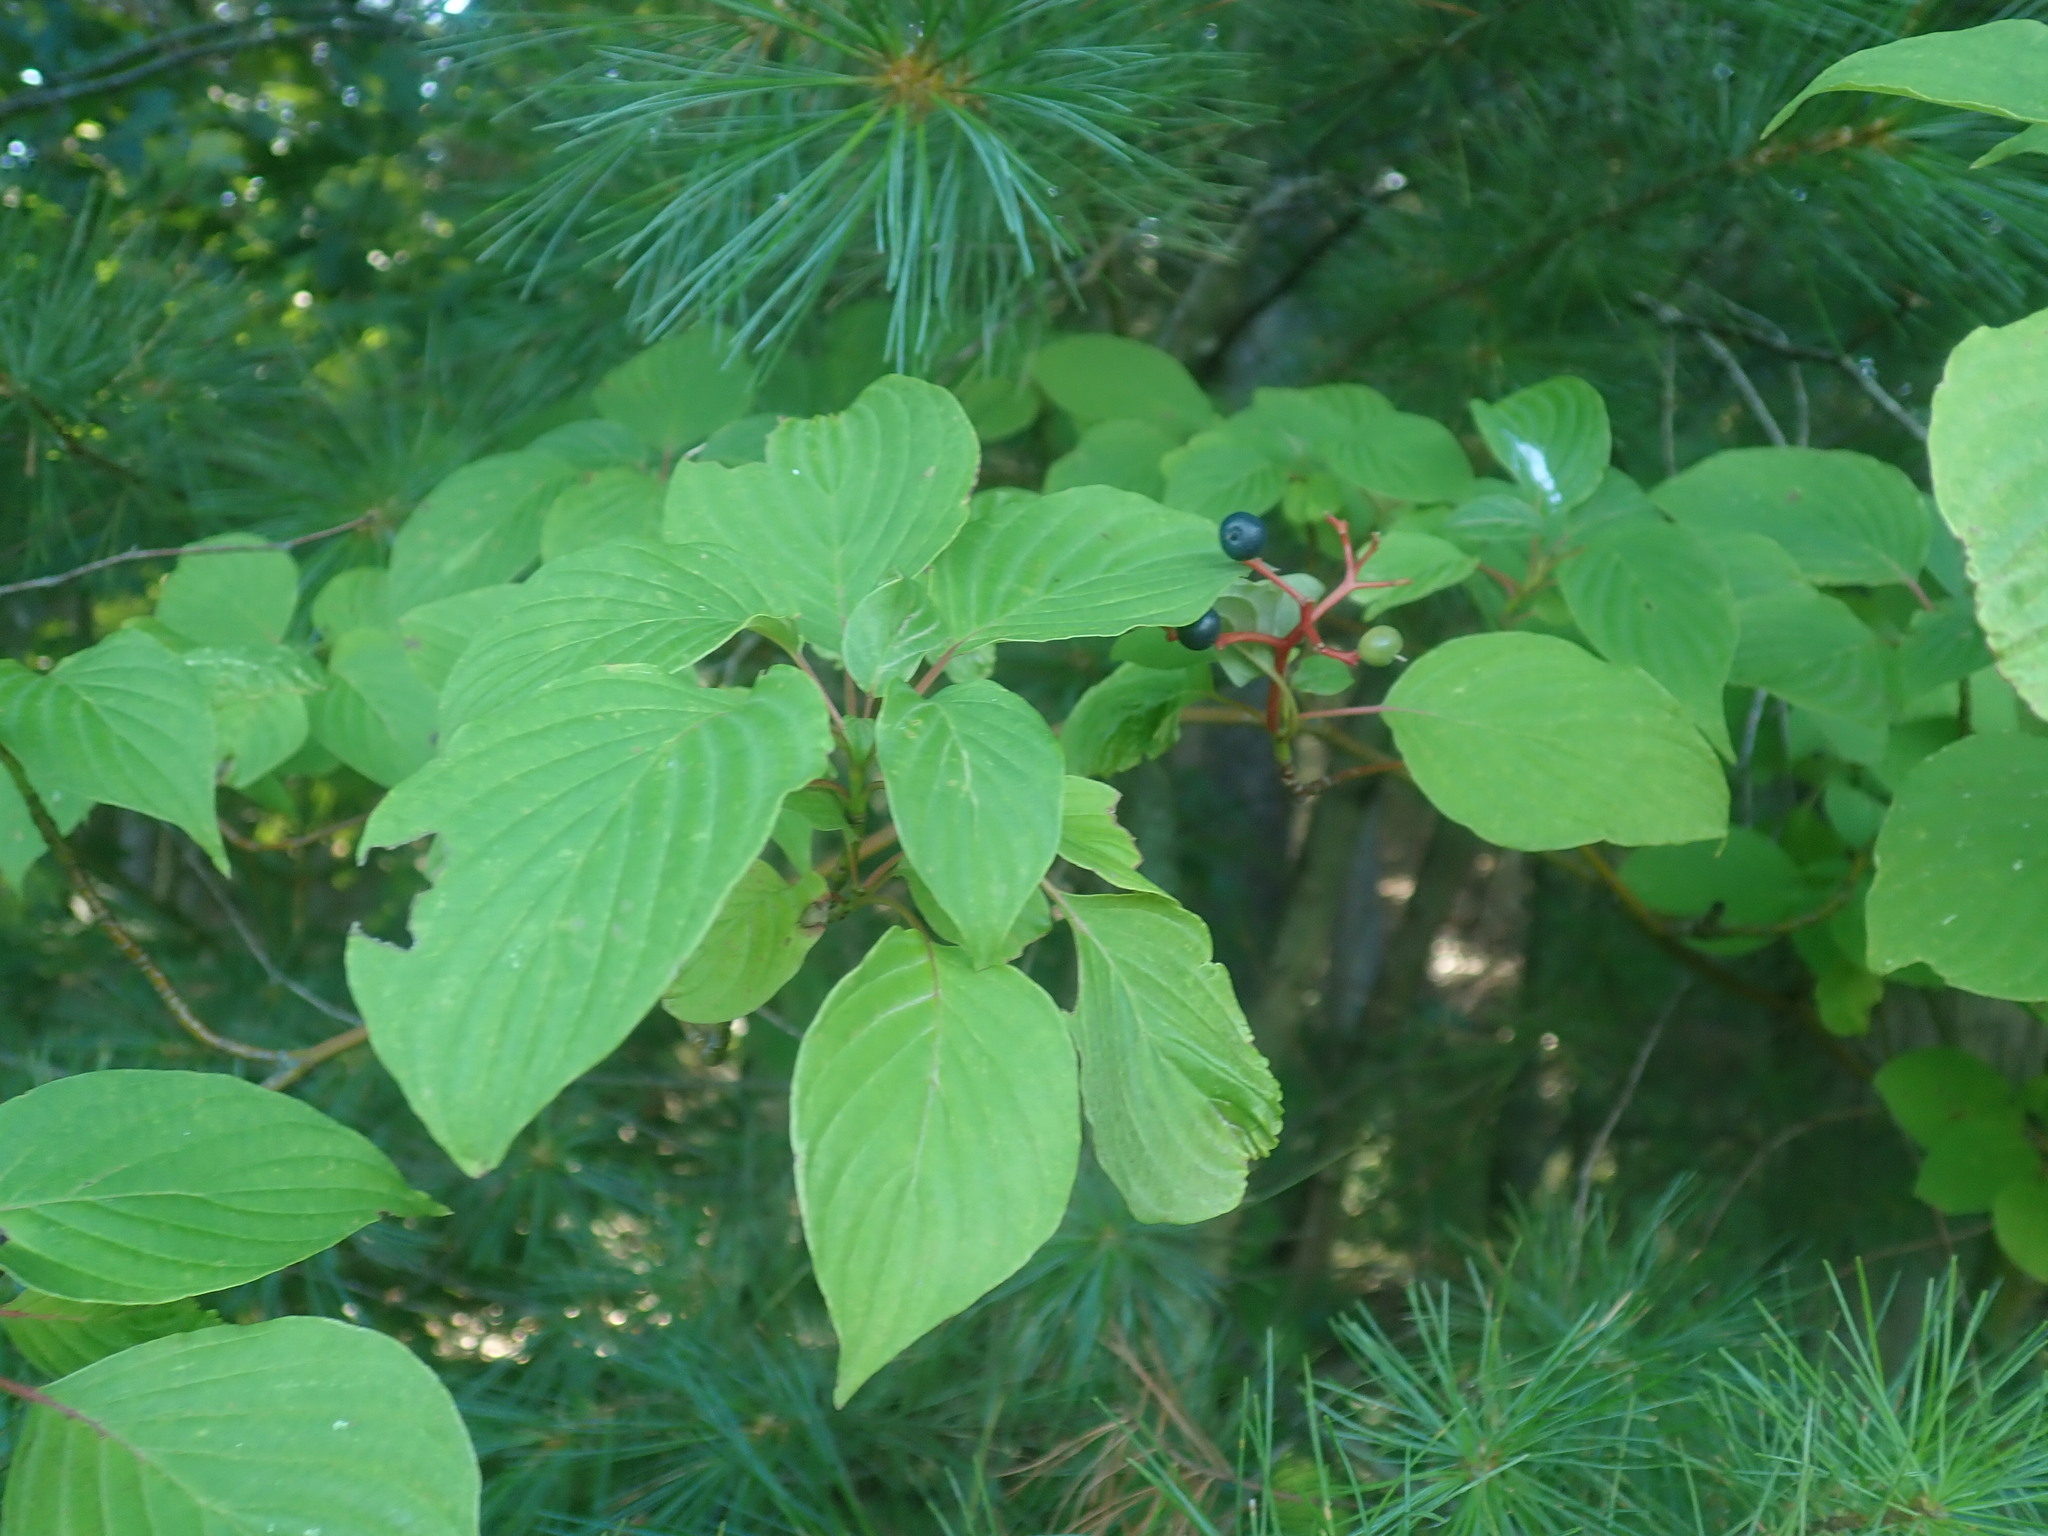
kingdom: Plantae
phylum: Tracheophyta
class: Magnoliopsida
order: Cornales
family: Cornaceae
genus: Cornus
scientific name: Cornus alternifolia
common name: Pagoda dogwood
